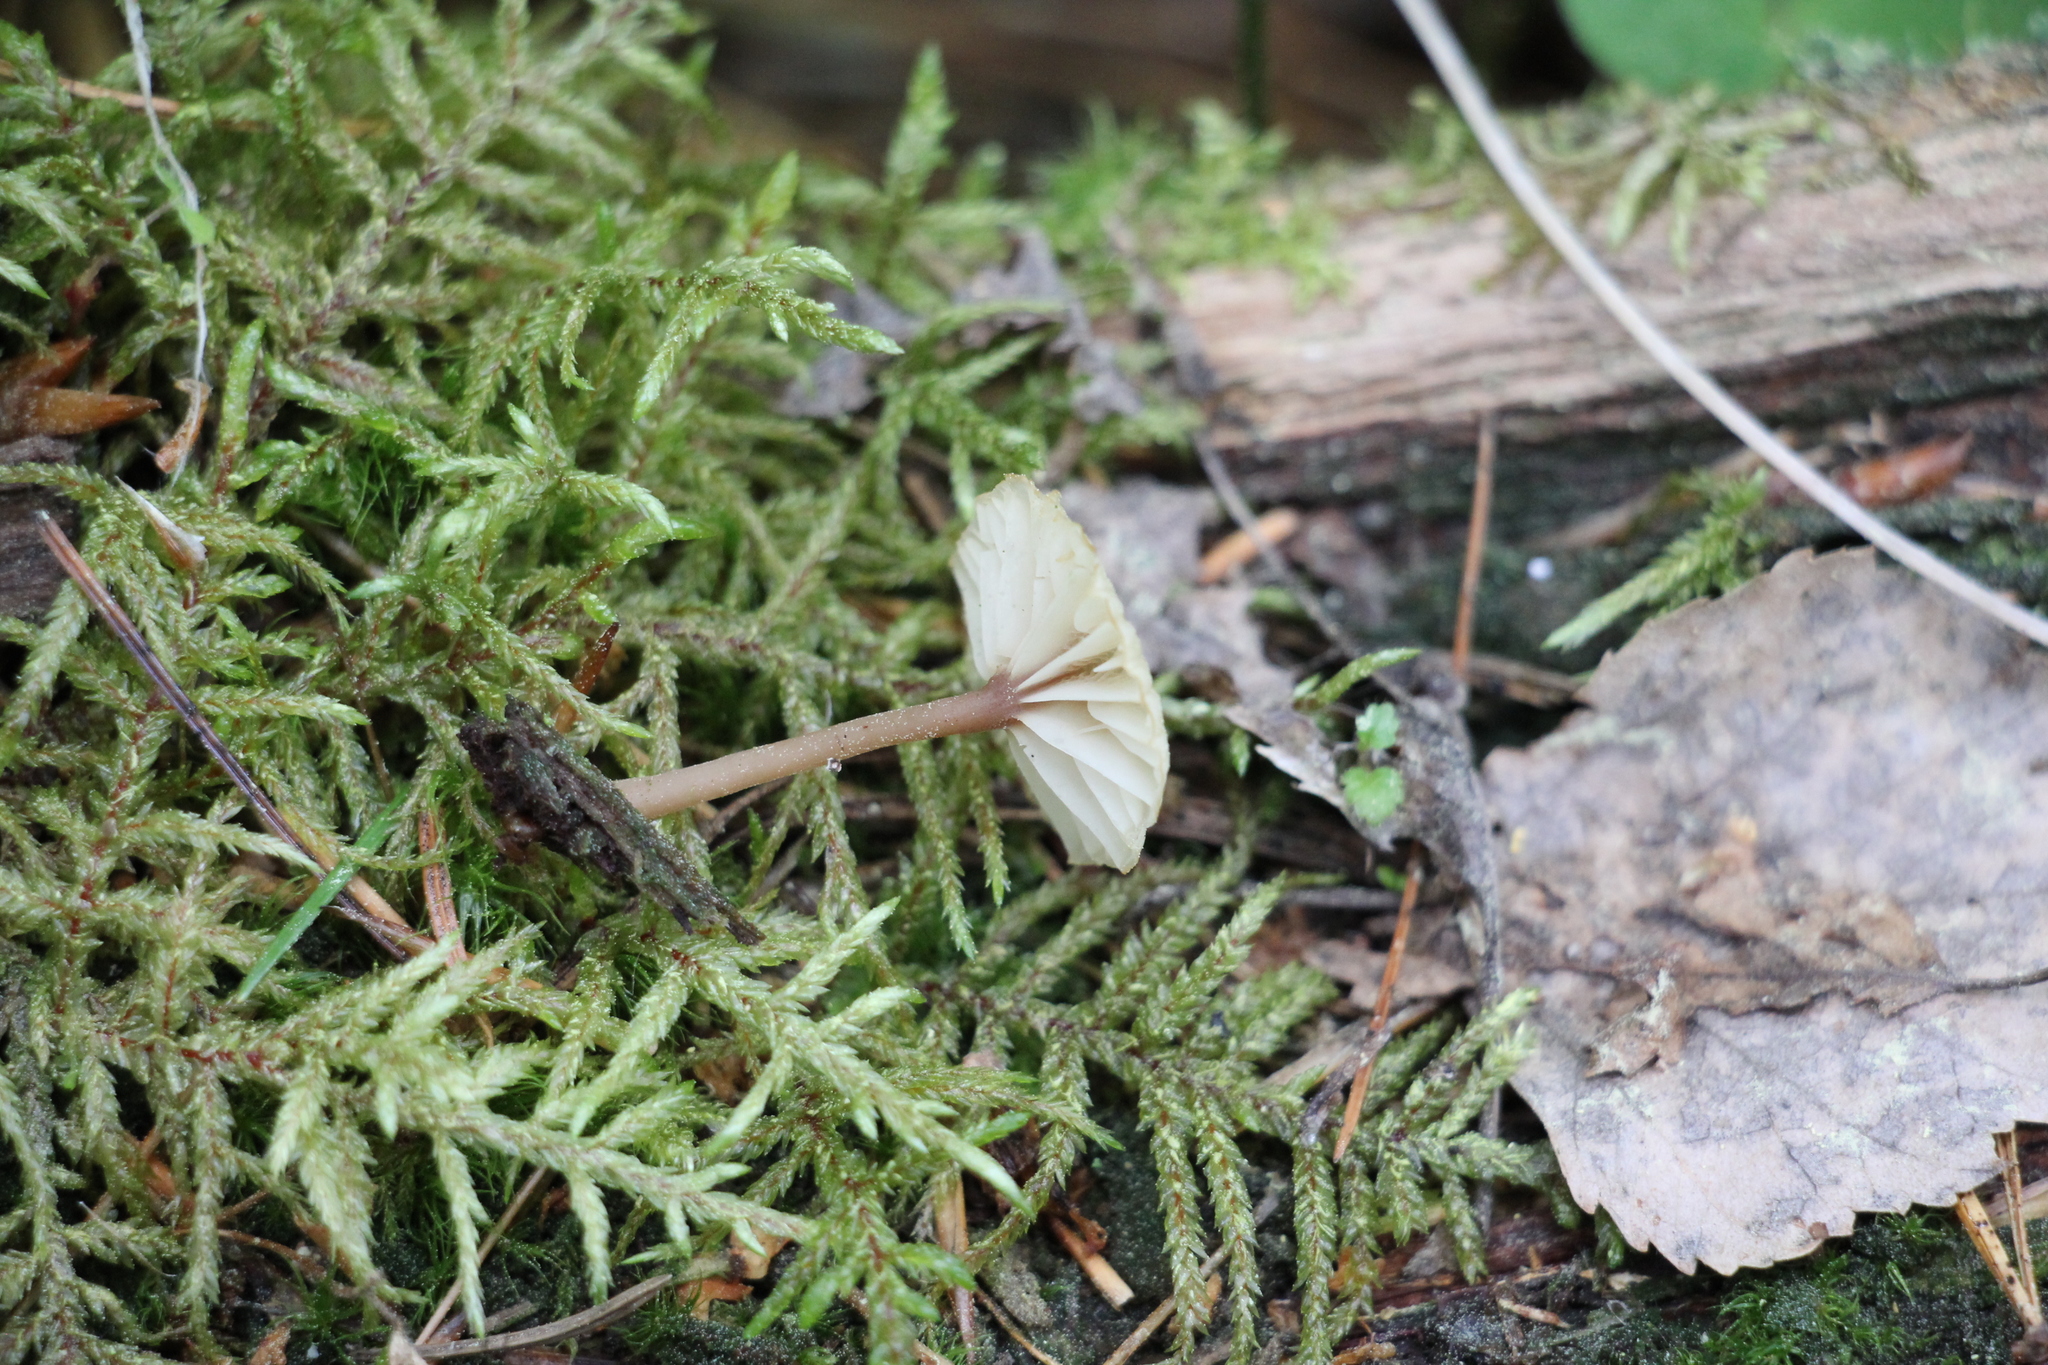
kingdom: Fungi
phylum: Basidiomycota
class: Agaricomycetes
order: Agaricales
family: Hygrophoraceae
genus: Lichenomphalia
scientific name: Lichenomphalia
